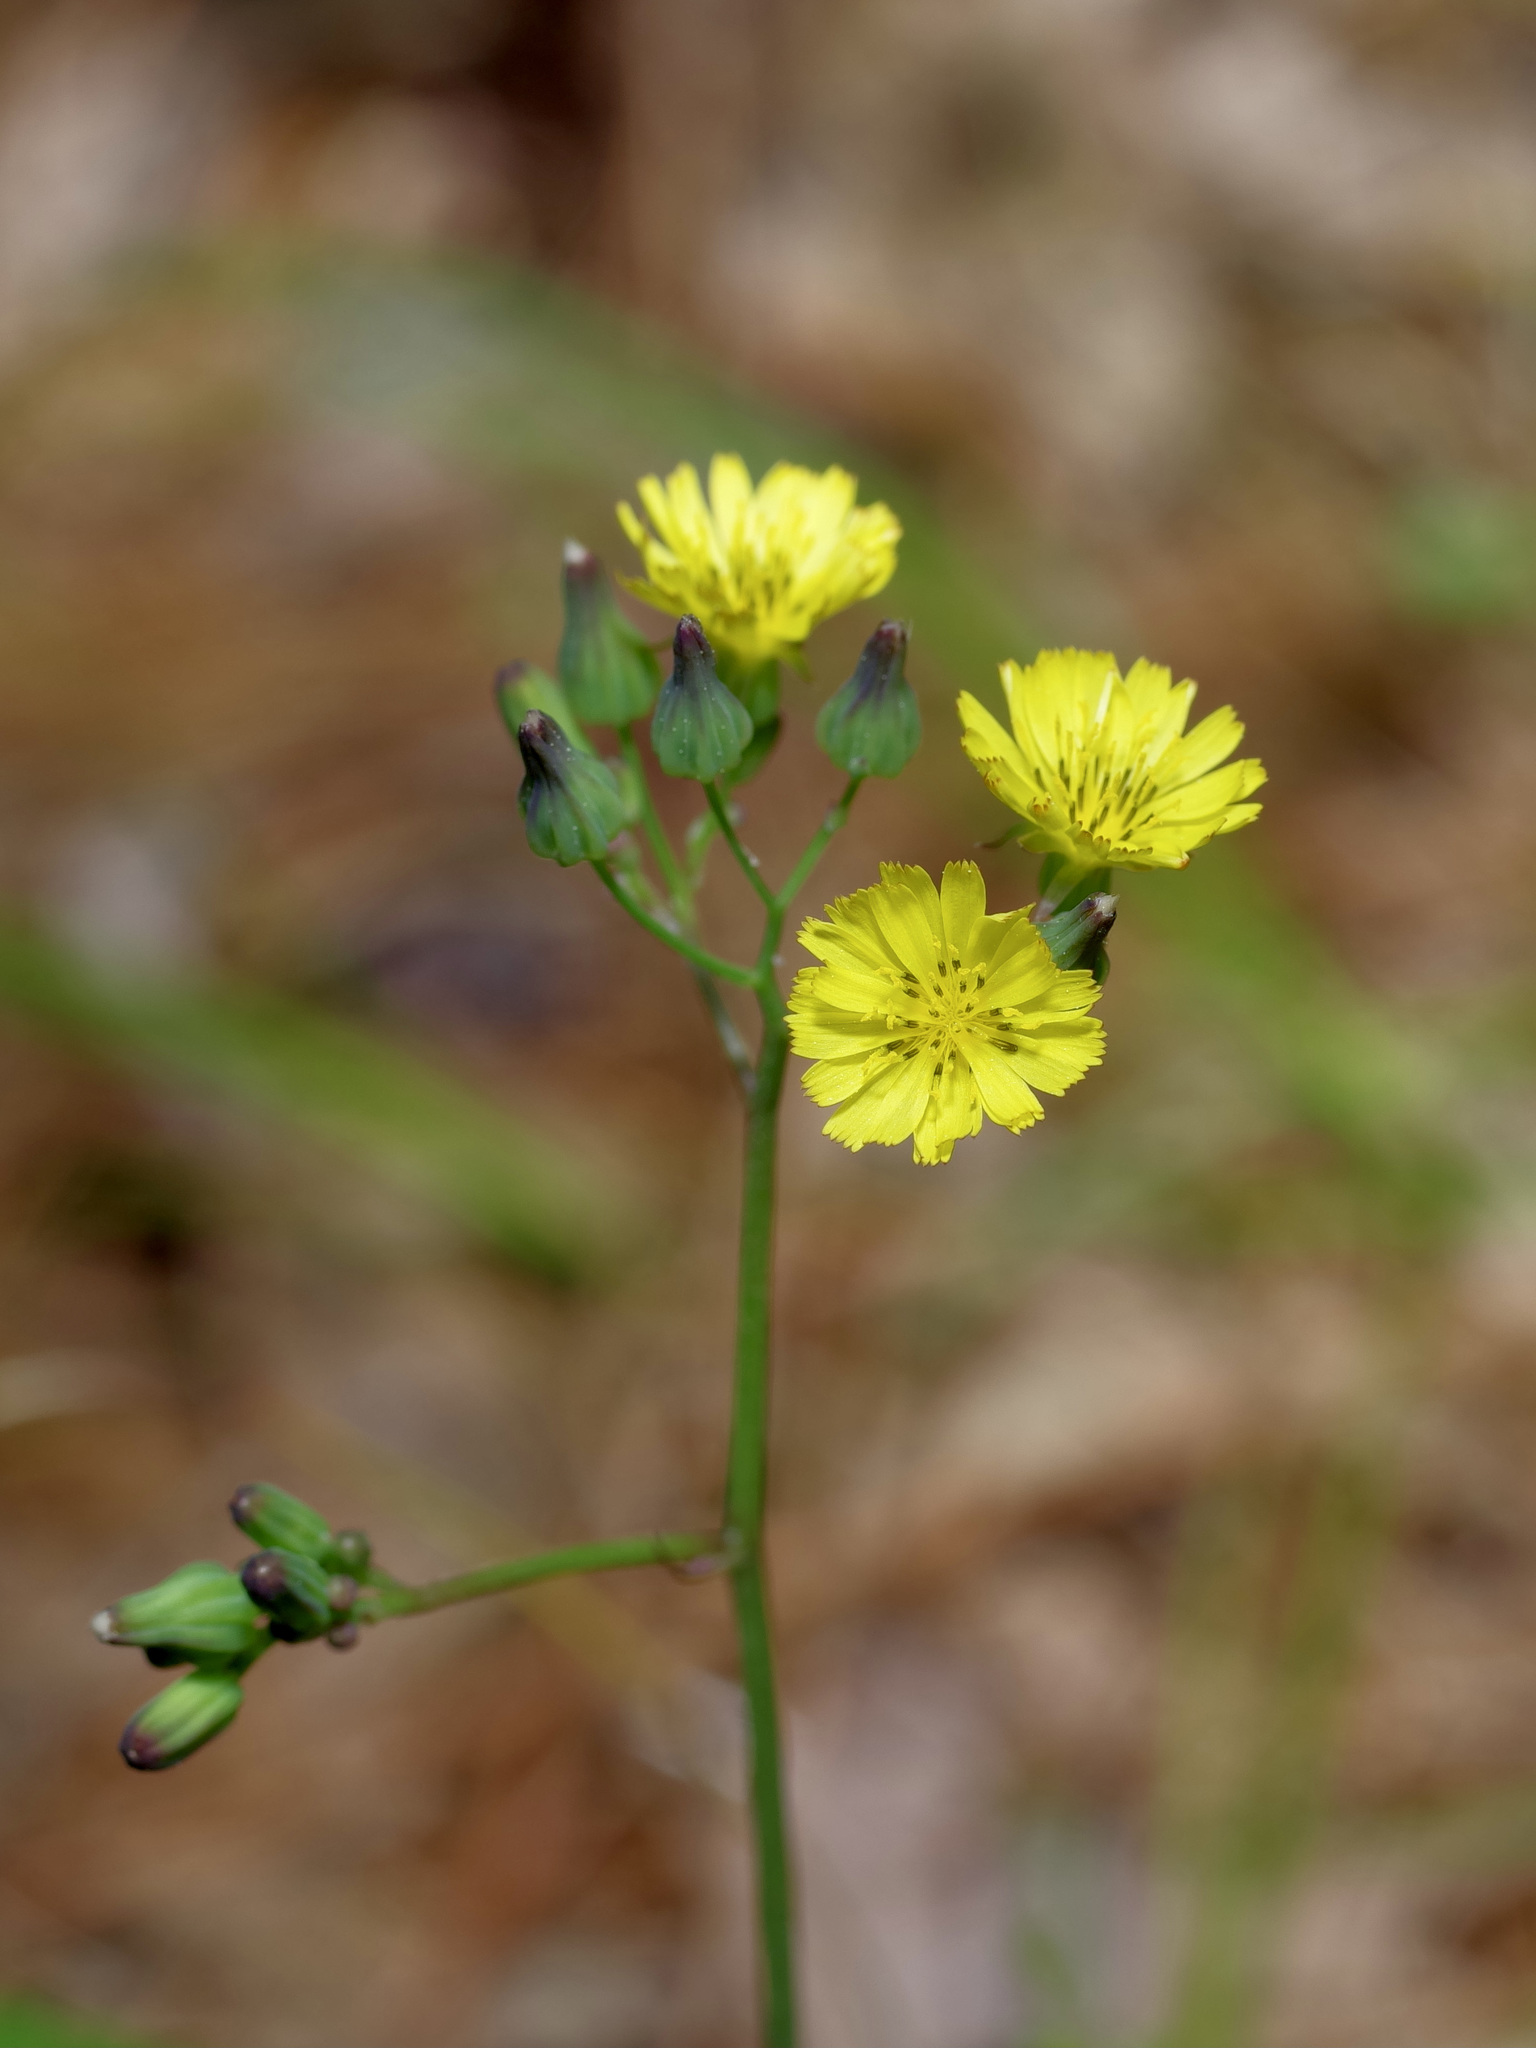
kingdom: Plantae
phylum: Tracheophyta
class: Magnoliopsida
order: Asterales
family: Asteraceae
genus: Youngia
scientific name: Youngia japonica
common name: Oriental false hawksbeard
